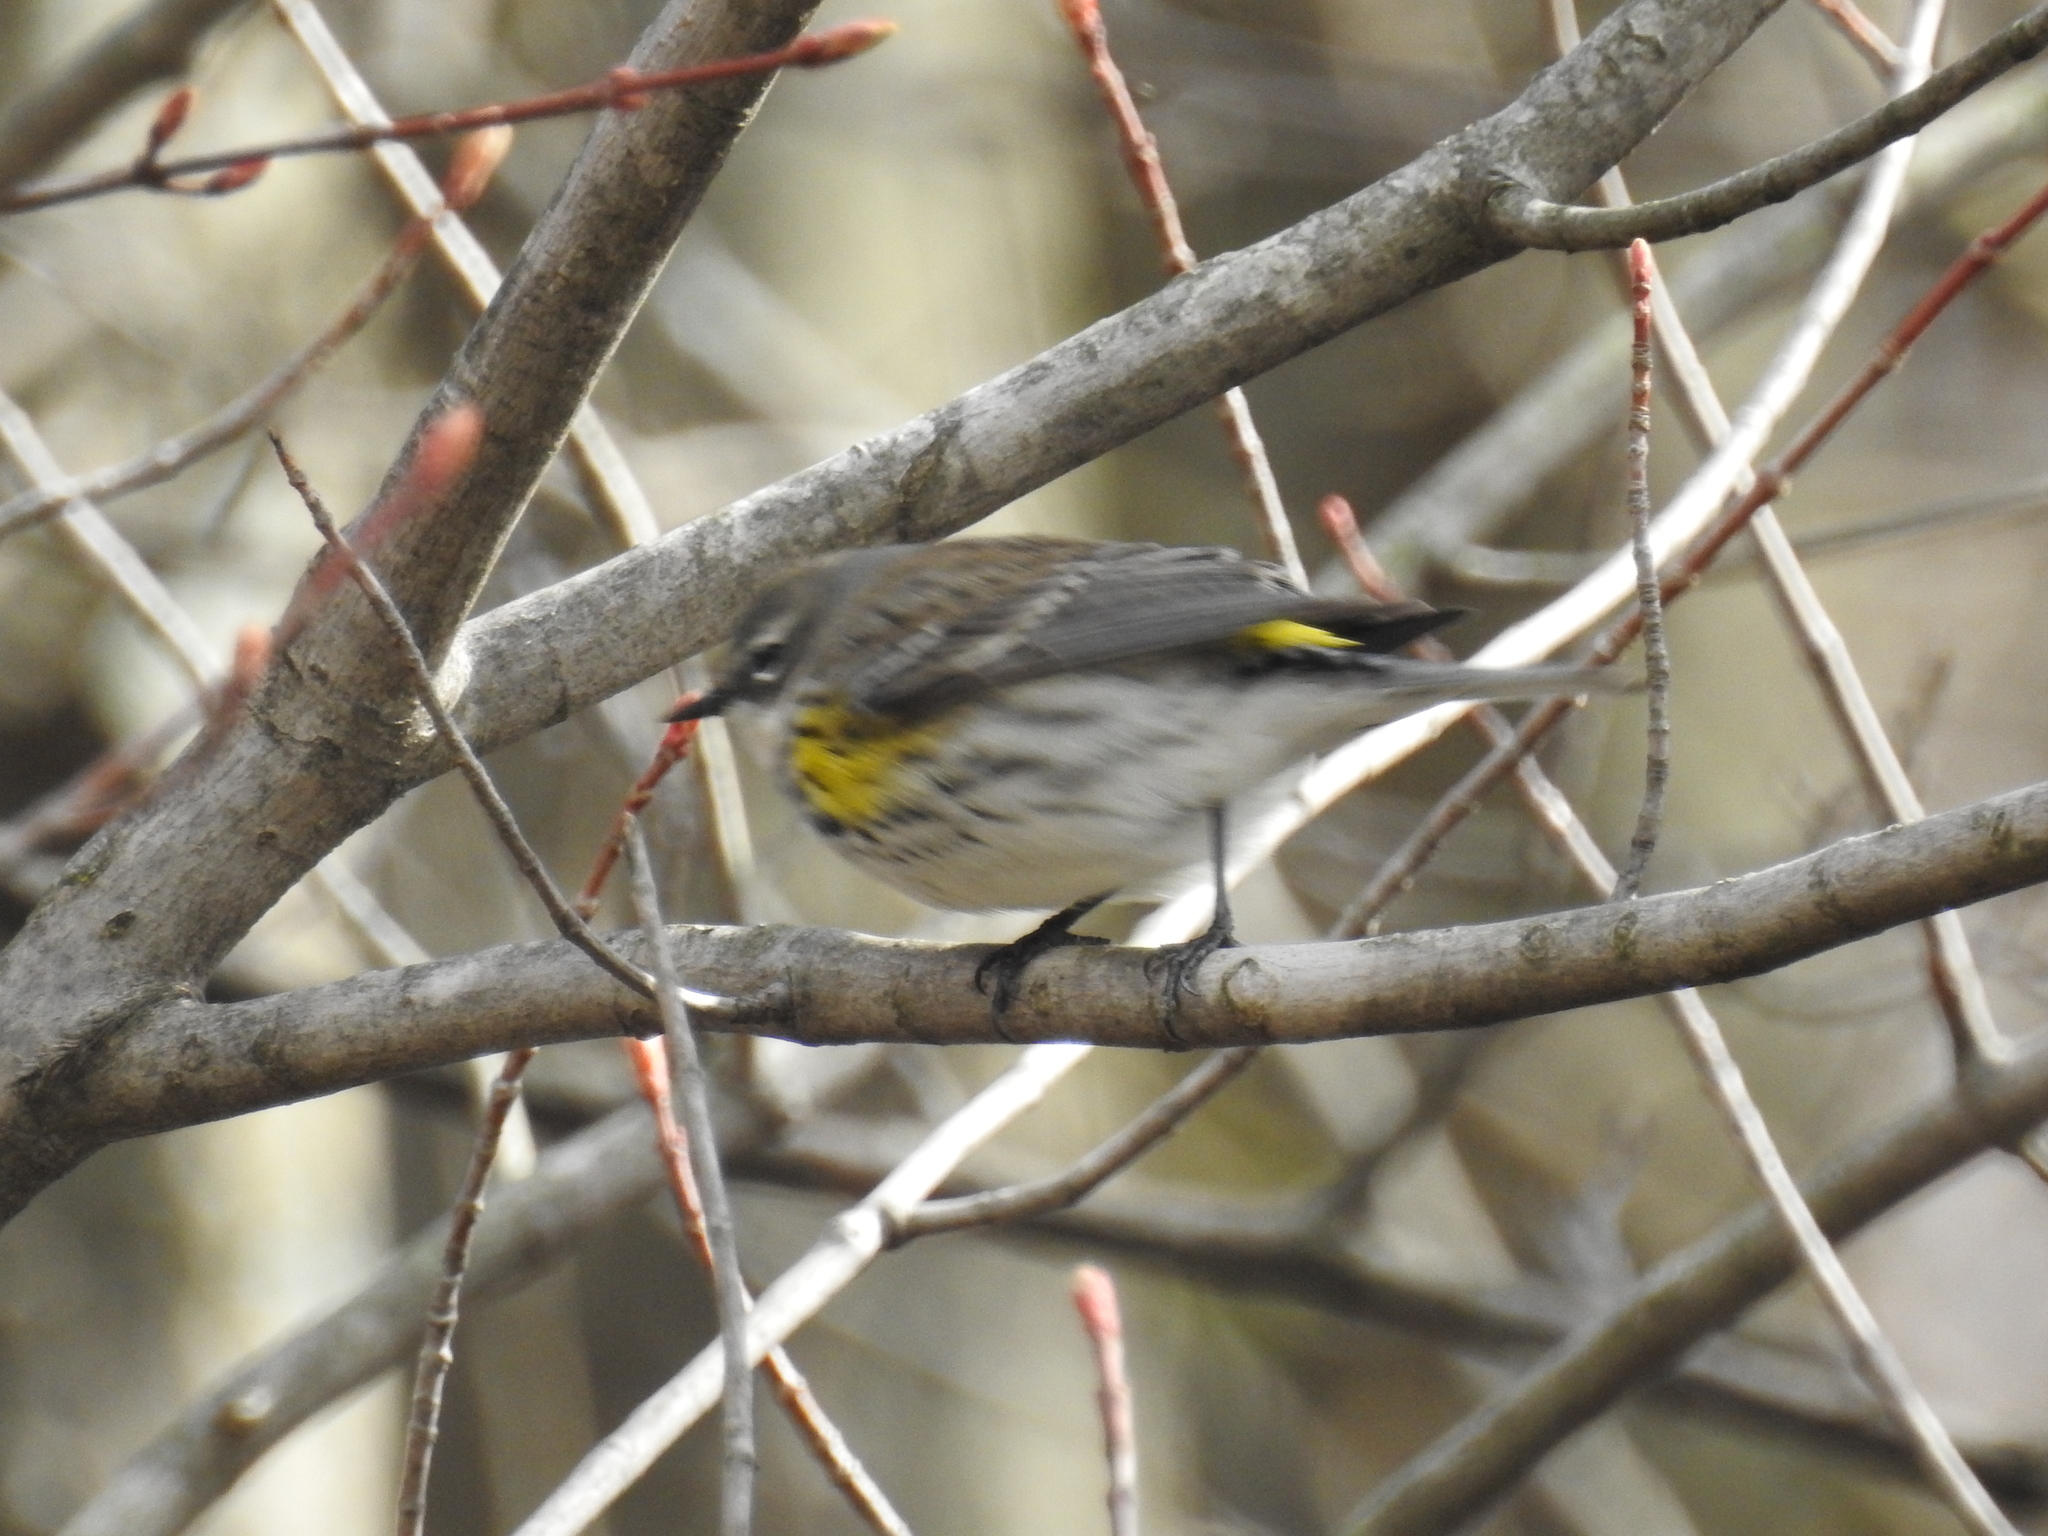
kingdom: Animalia
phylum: Chordata
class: Aves
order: Passeriformes
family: Parulidae
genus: Setophaga
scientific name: Setophaga coronata
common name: Myrtle warbler
